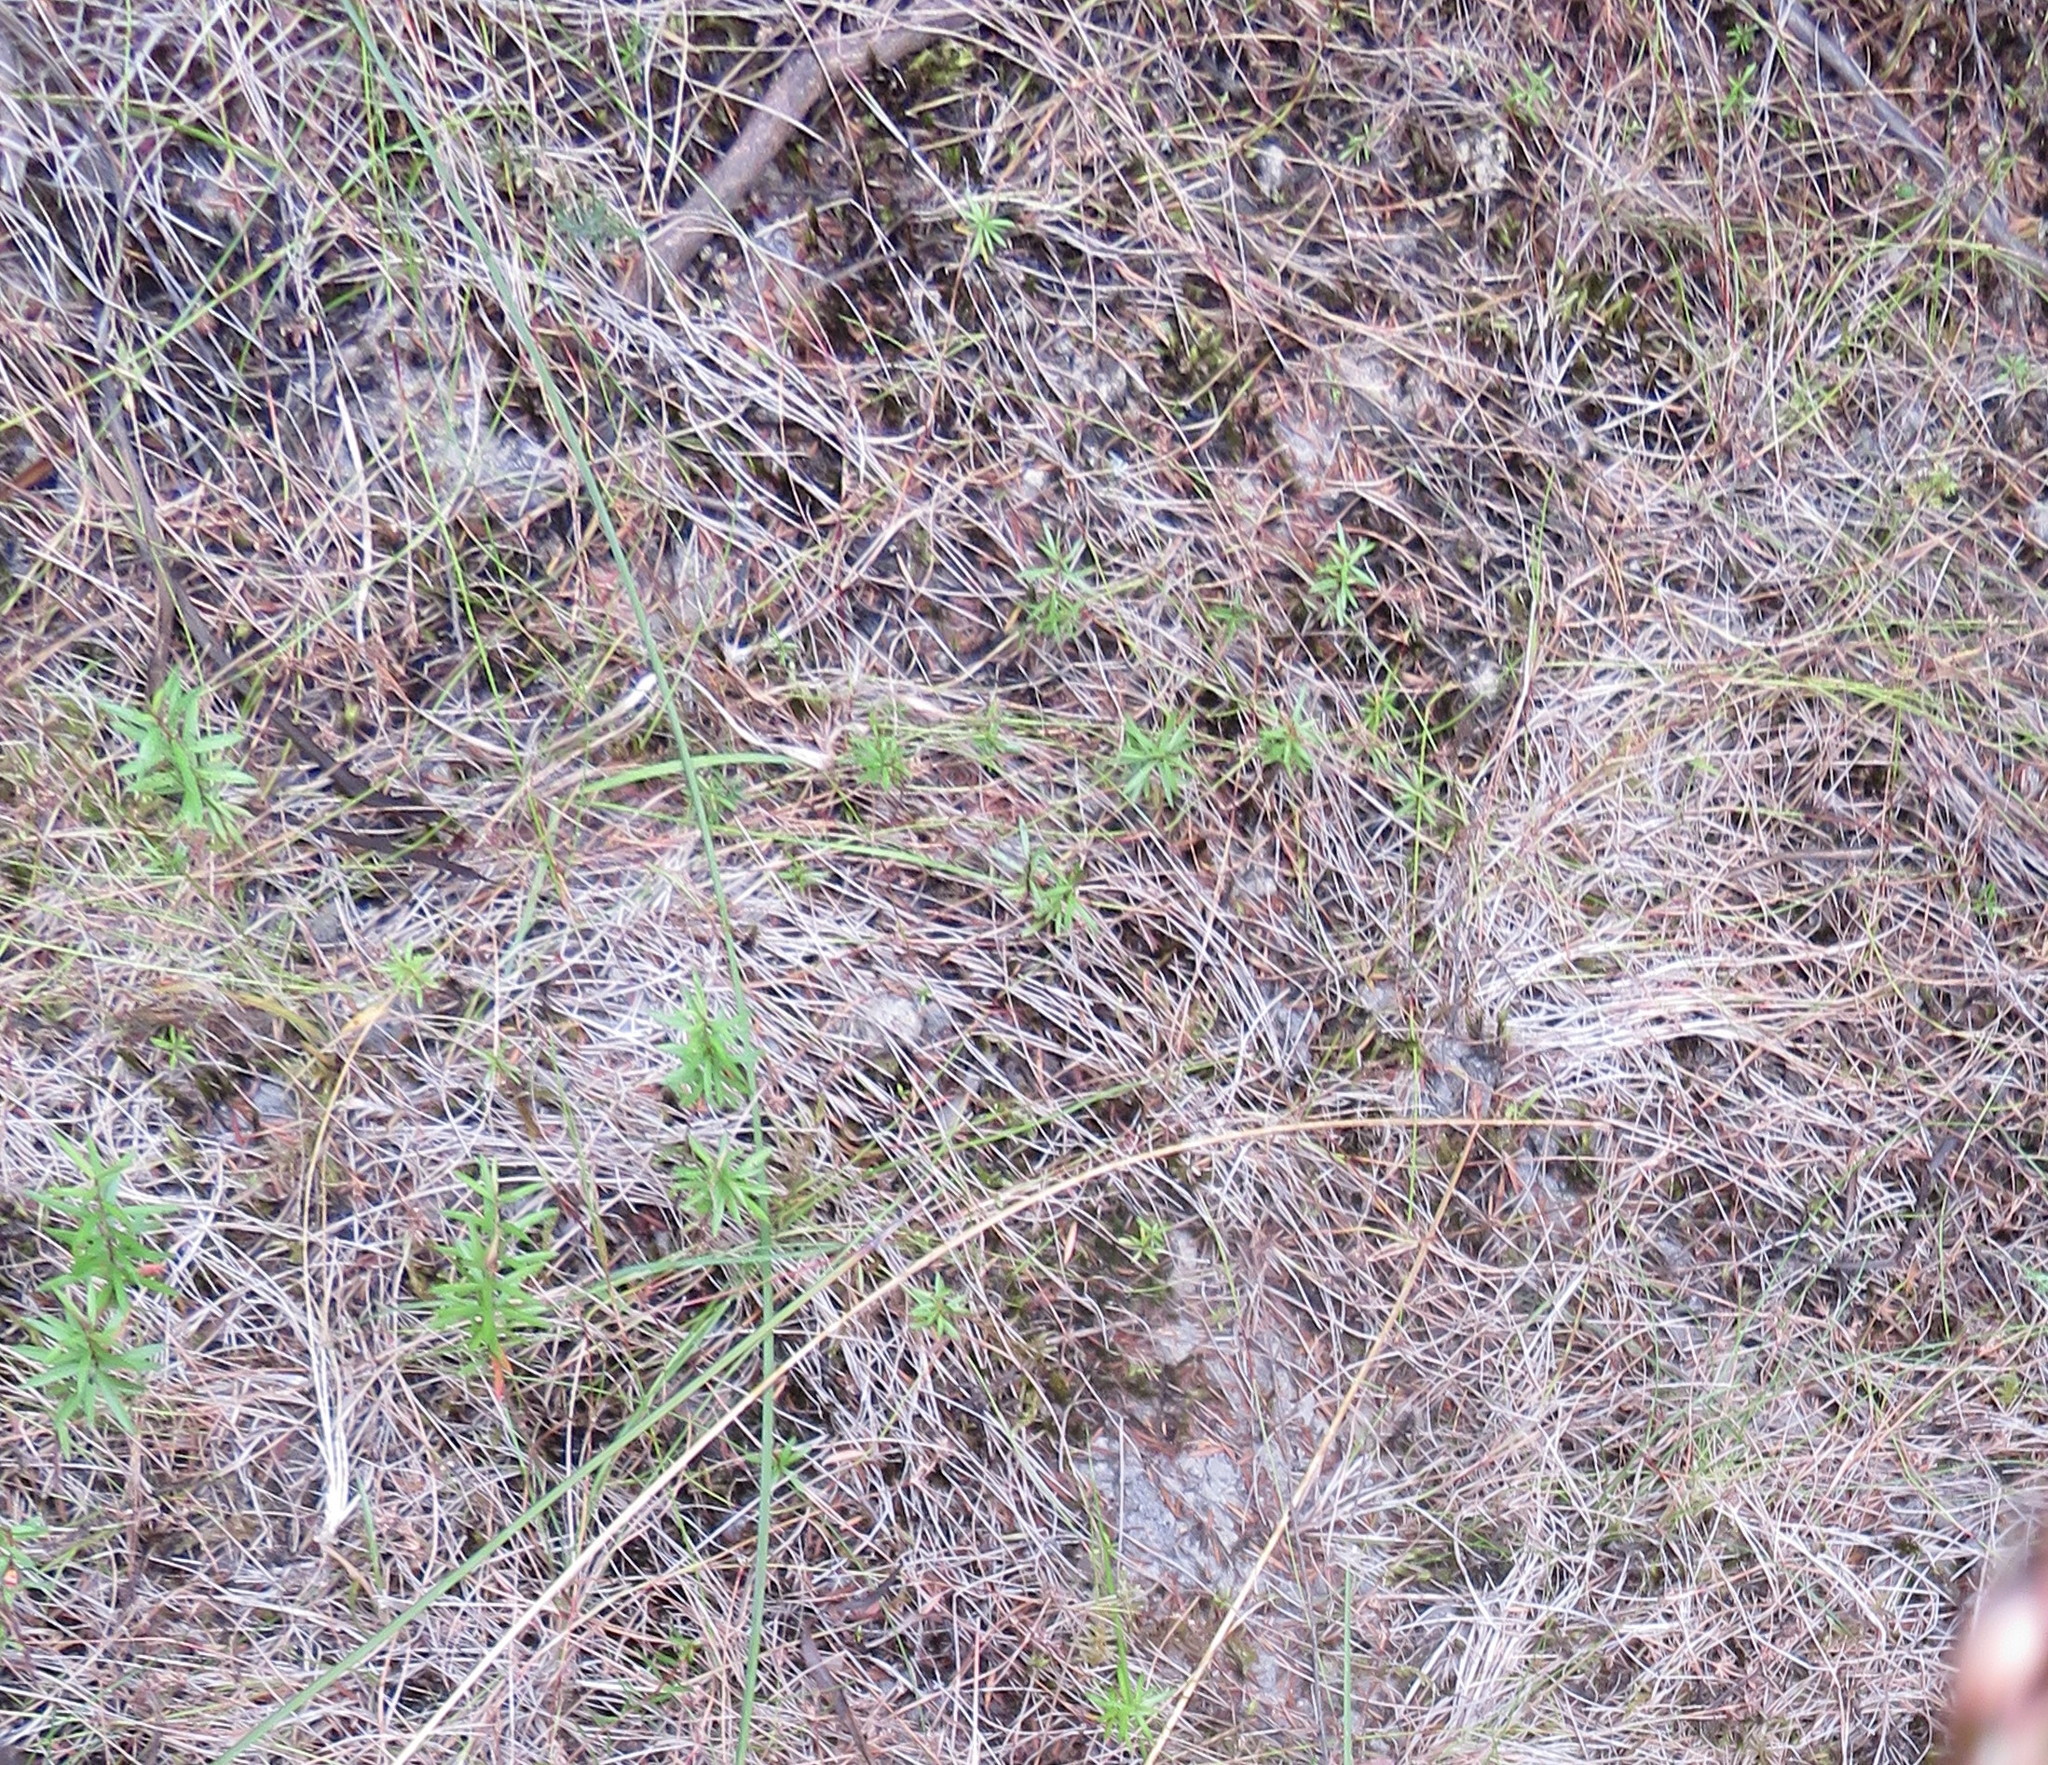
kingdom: Plantae
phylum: Tracheophyta
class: Magnoliopsida
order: Myrtales
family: Myrtaceae
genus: Leptospermum
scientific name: Leptospermum scoparium
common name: Broom tea-tree
